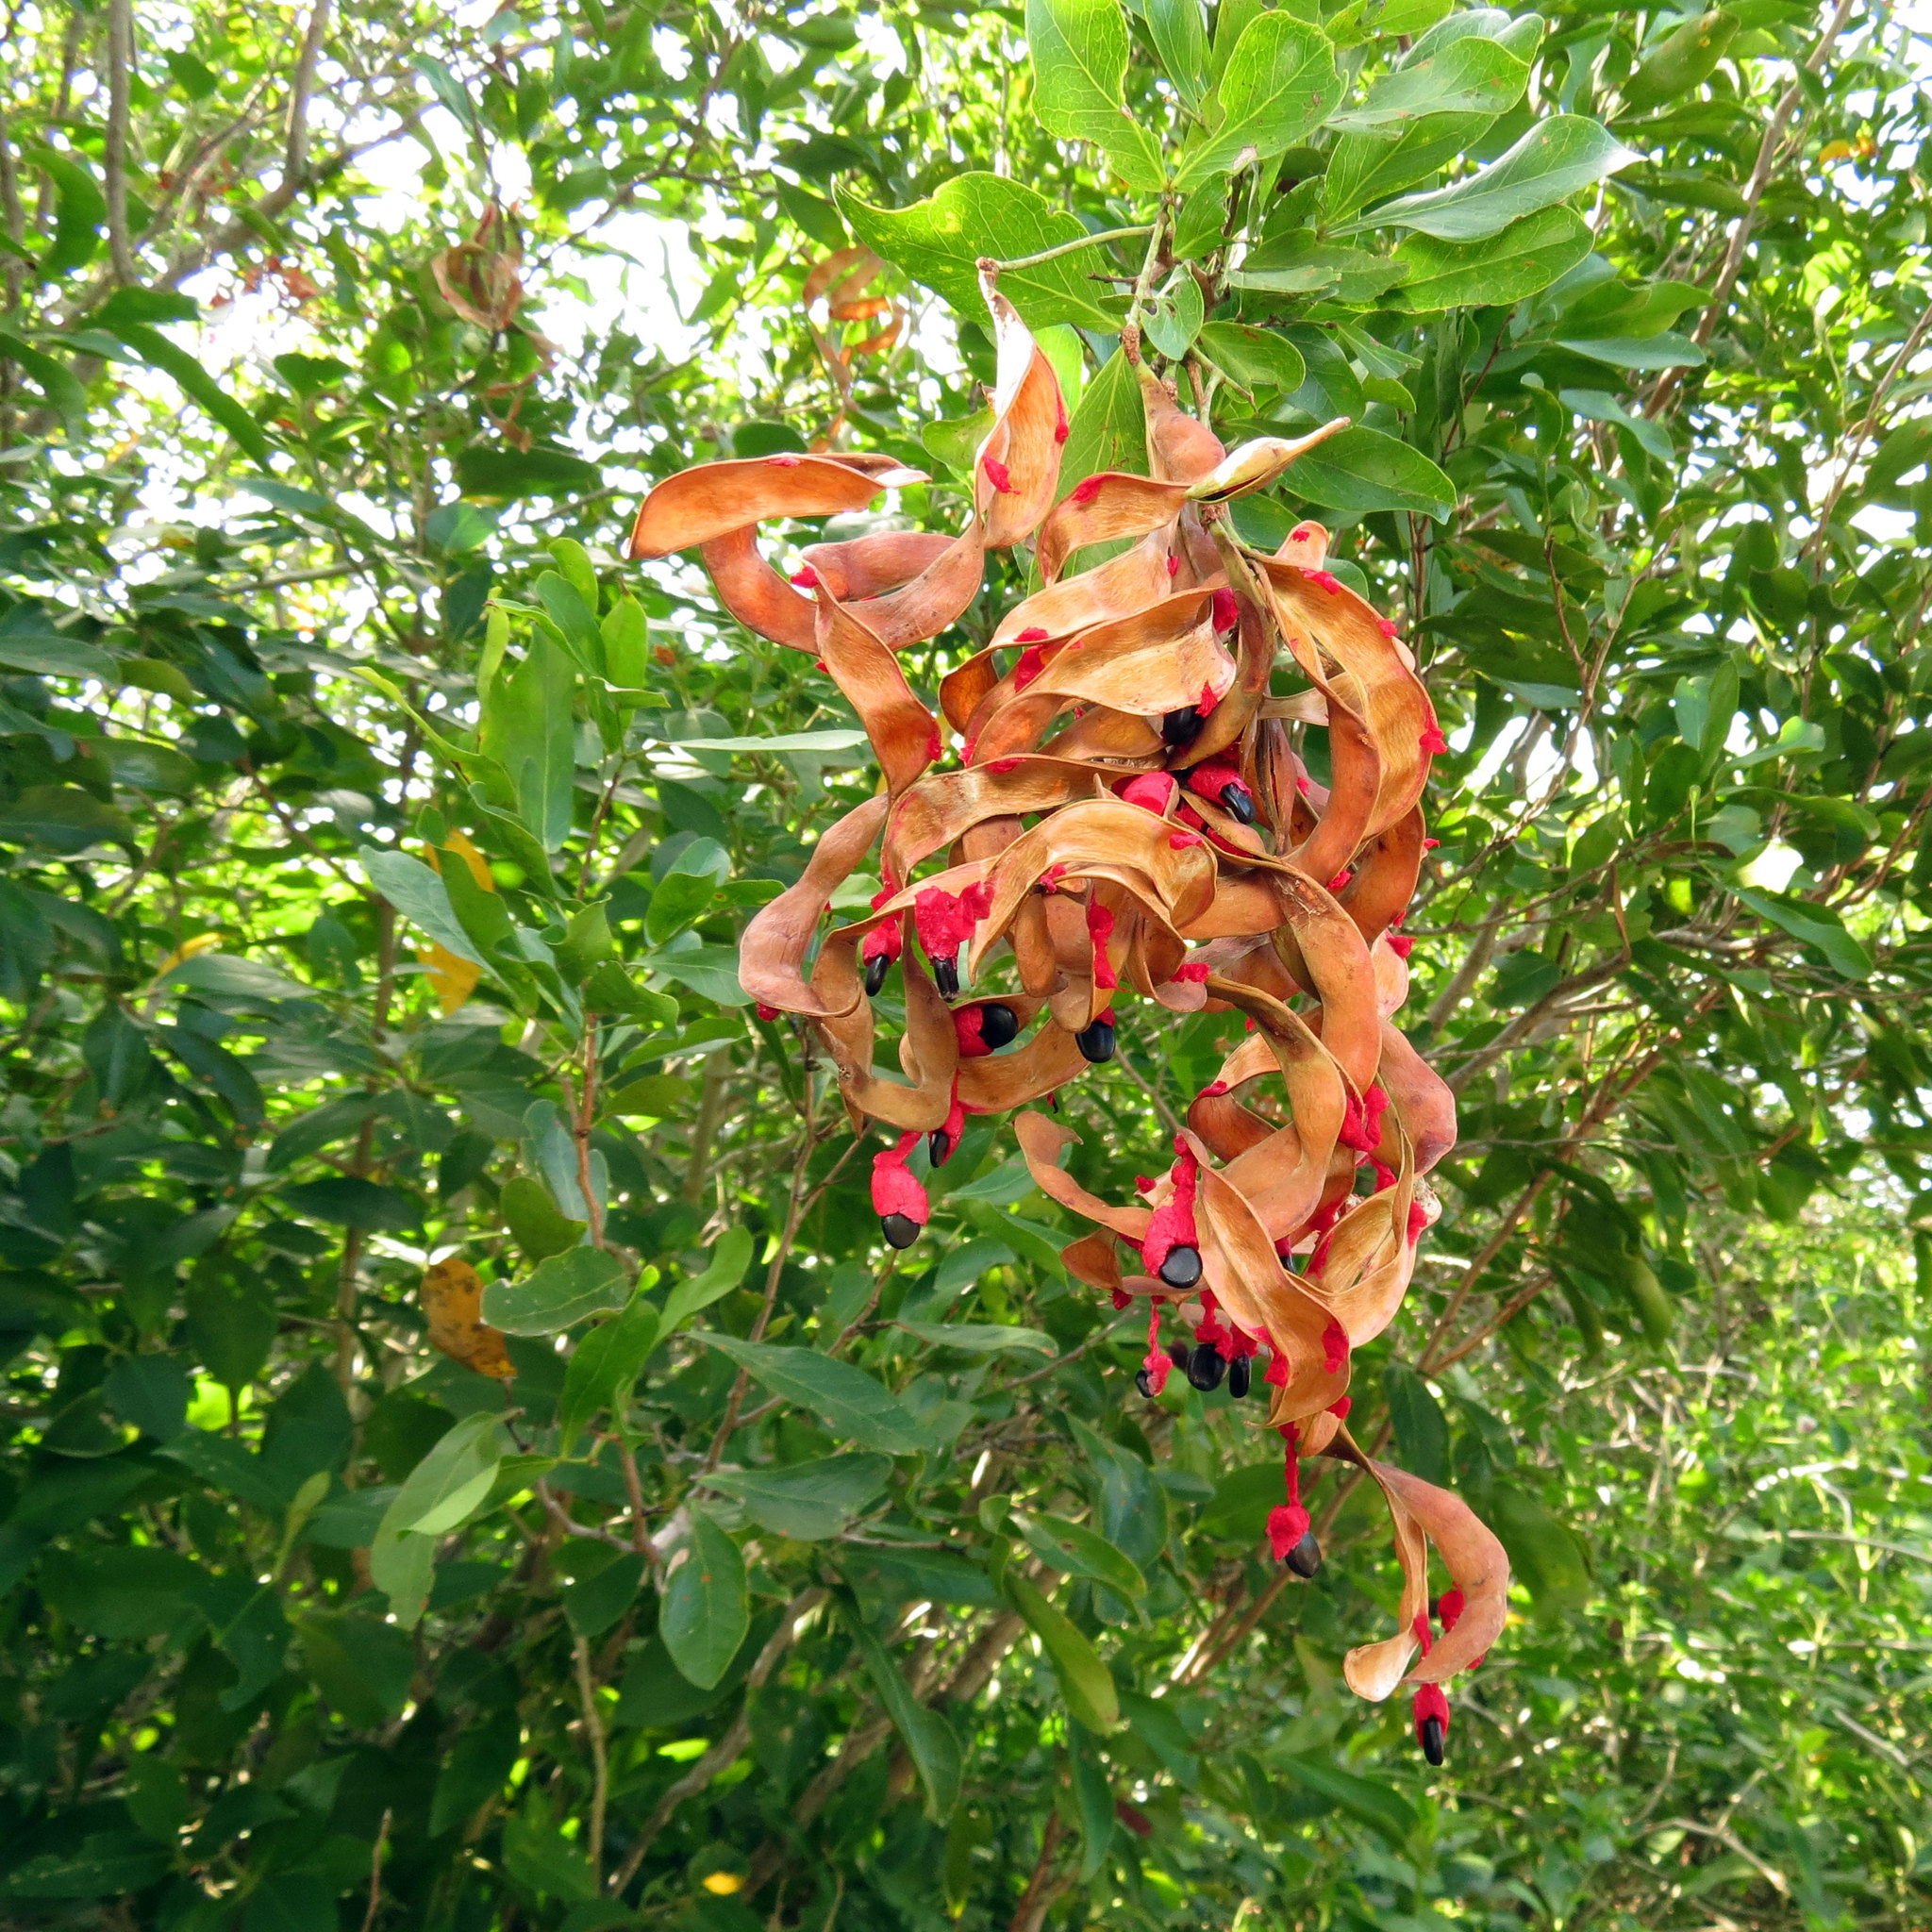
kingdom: Plantae
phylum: Tracheophyta
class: Magnoliopsida
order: Fabales
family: Fabaceae
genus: Pithecellobium
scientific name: Pithecellobium unguis-cati
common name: Cat's-claw
